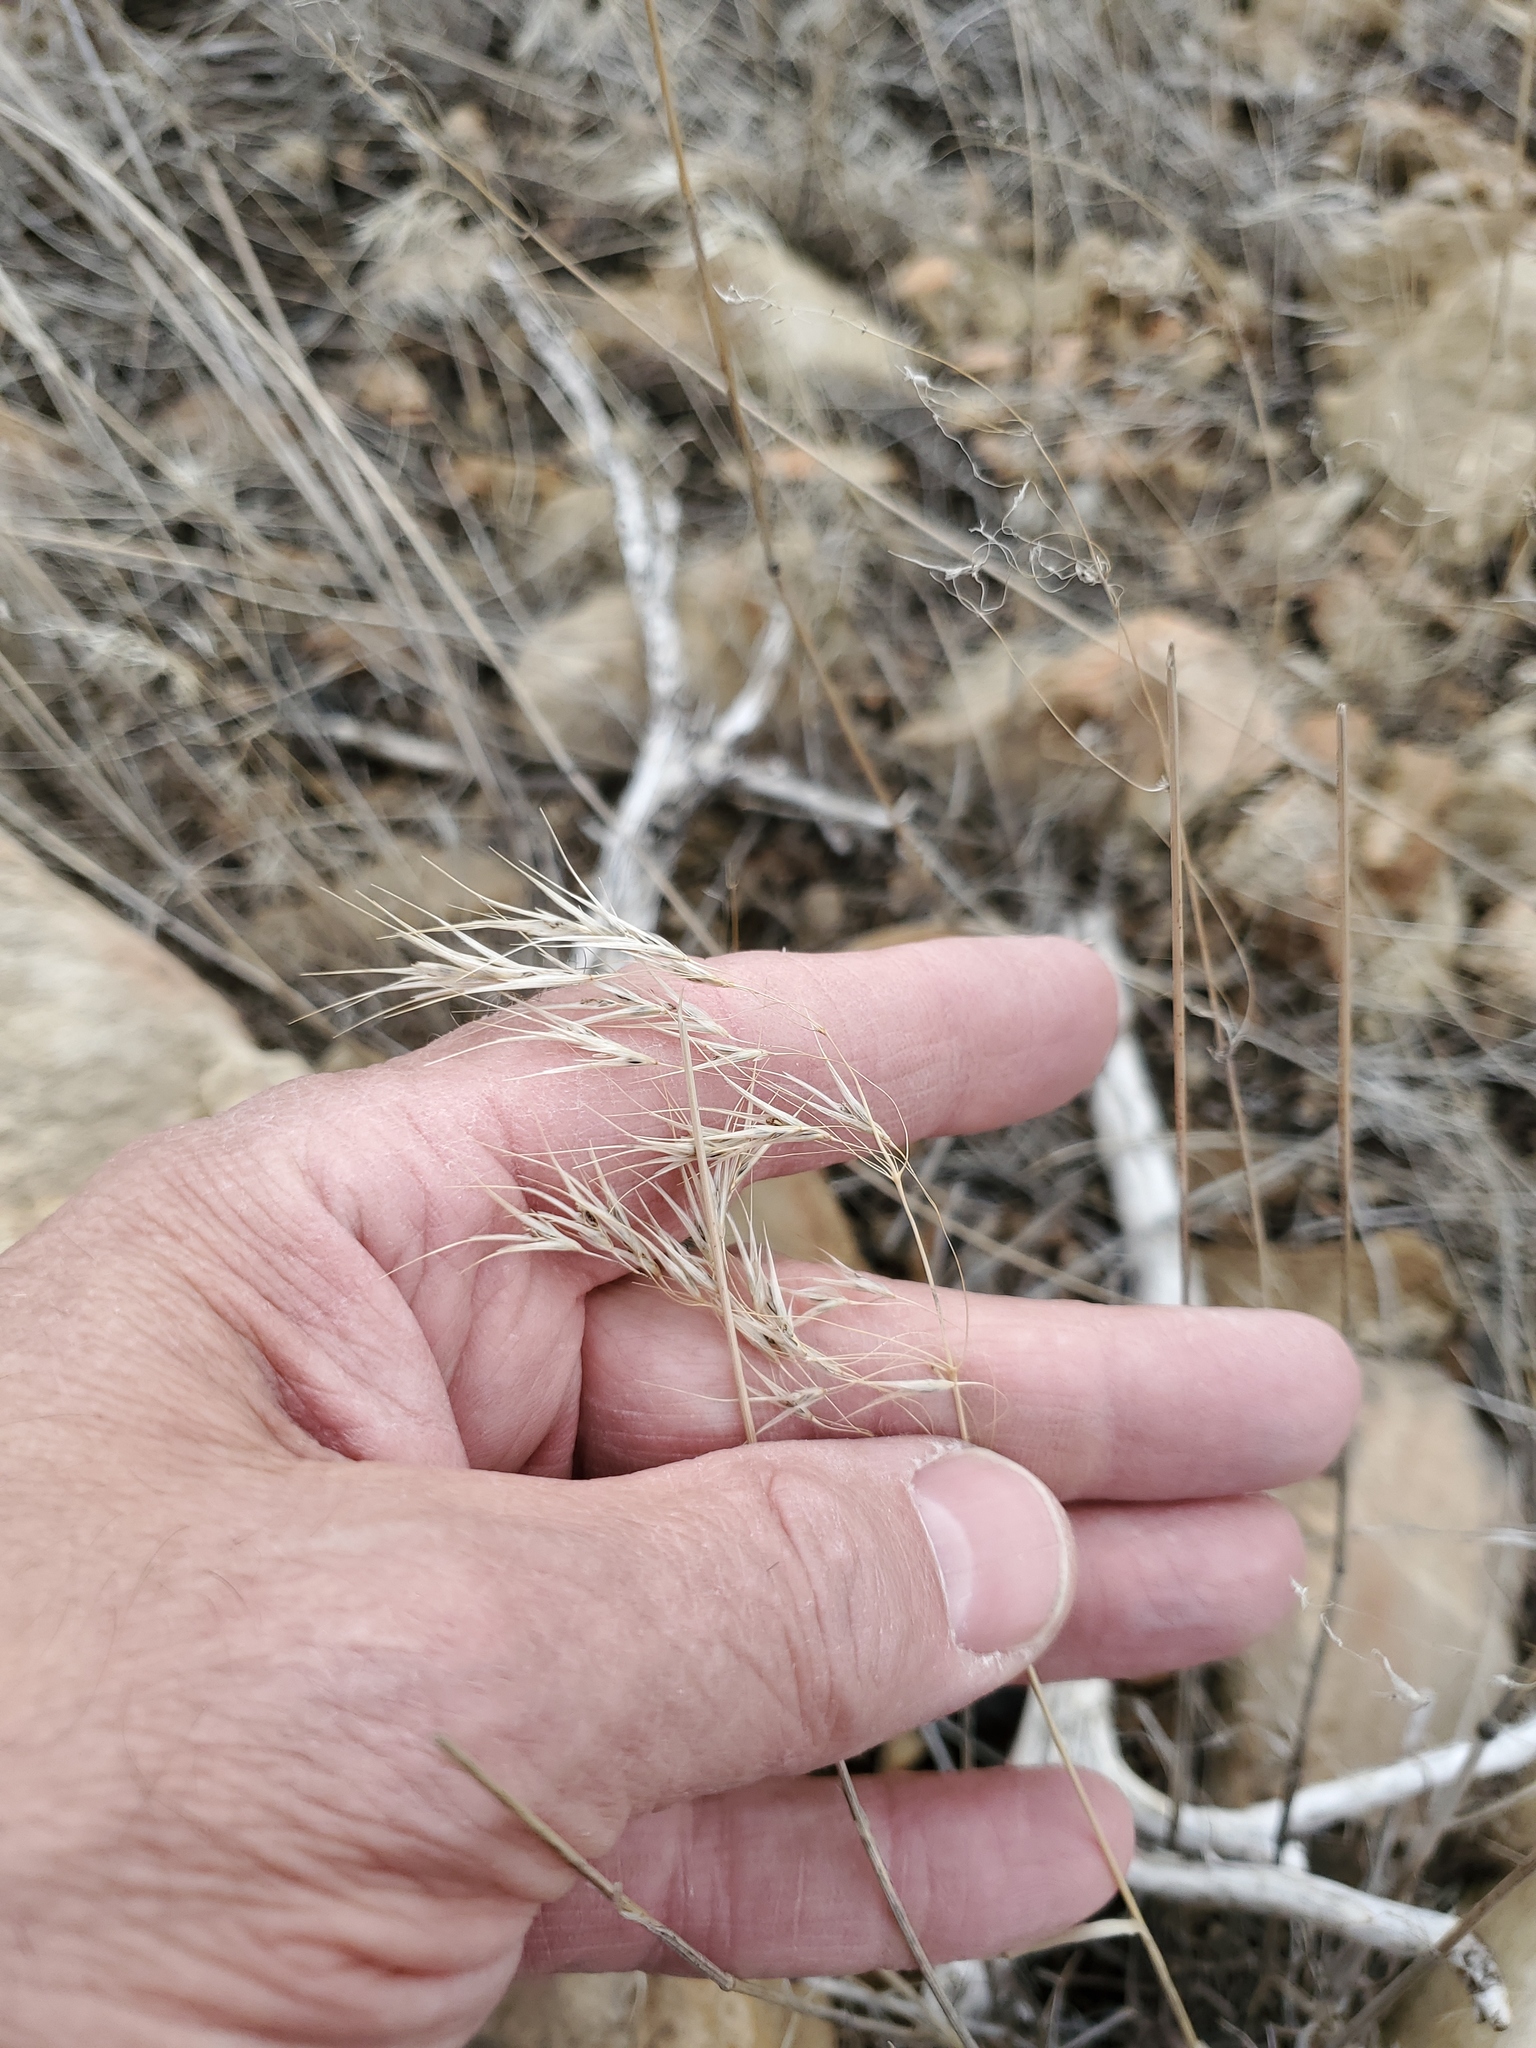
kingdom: Plantae
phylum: Tracheophyta
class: Liliopsida
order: Poales
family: Poaceae
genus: Bromus
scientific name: Bromus tectorum
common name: Cheatgrass
